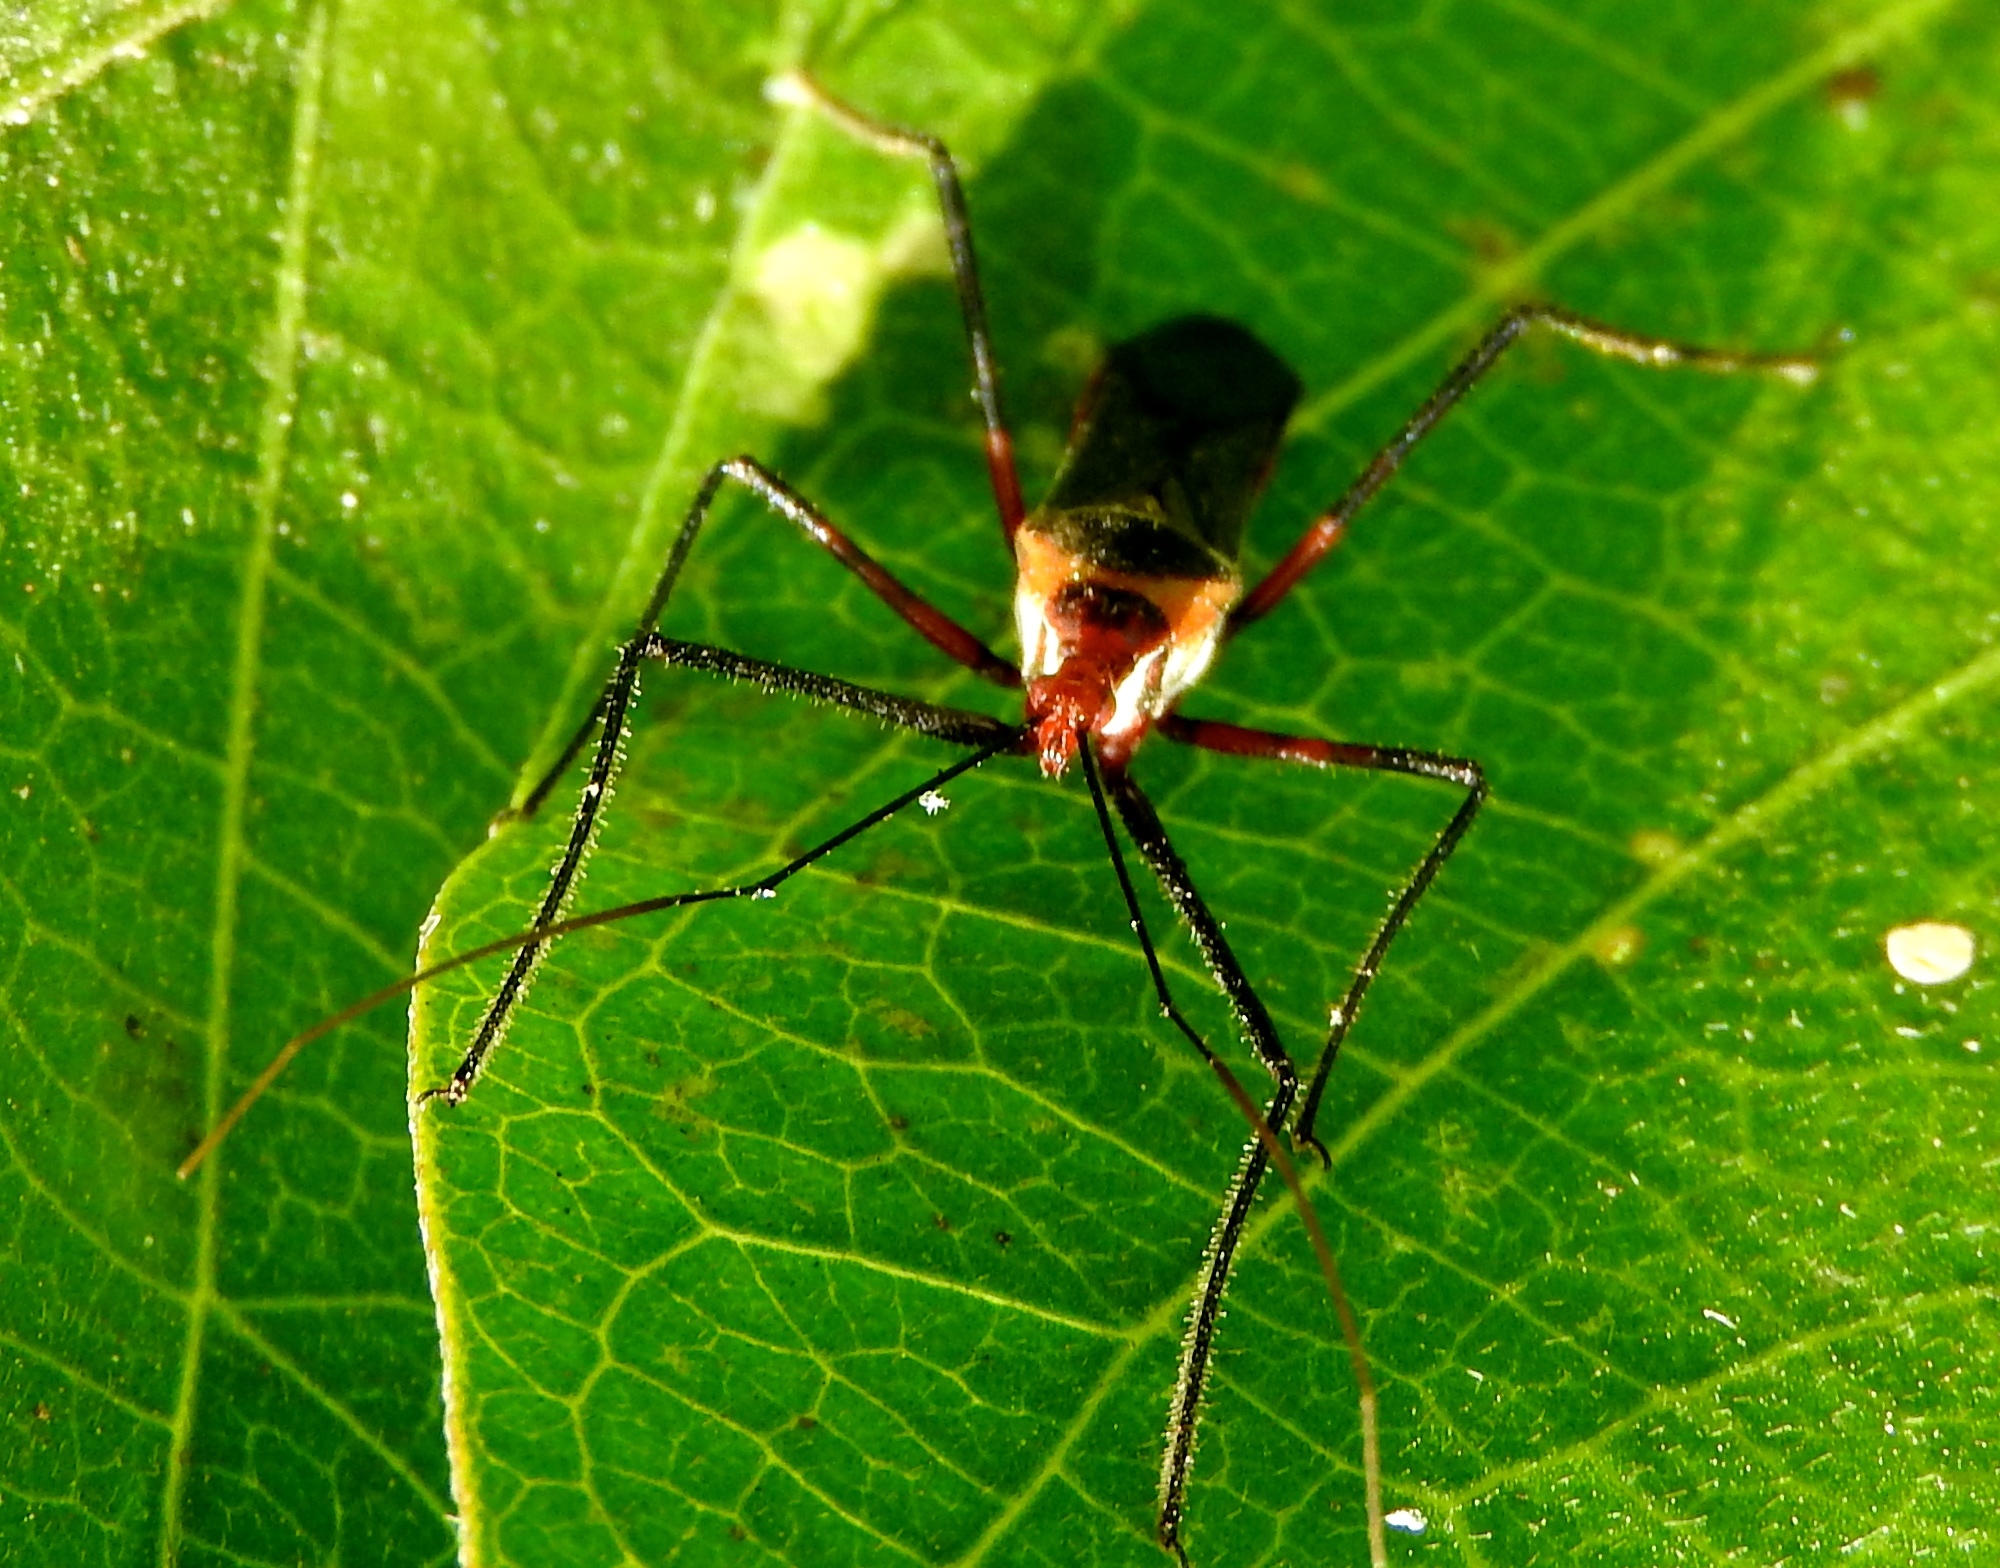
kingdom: Animalia
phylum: Arthropoda
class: Insecta
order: Hemiptera
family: Reduviidae
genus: Zelus
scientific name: Zelus grassans
